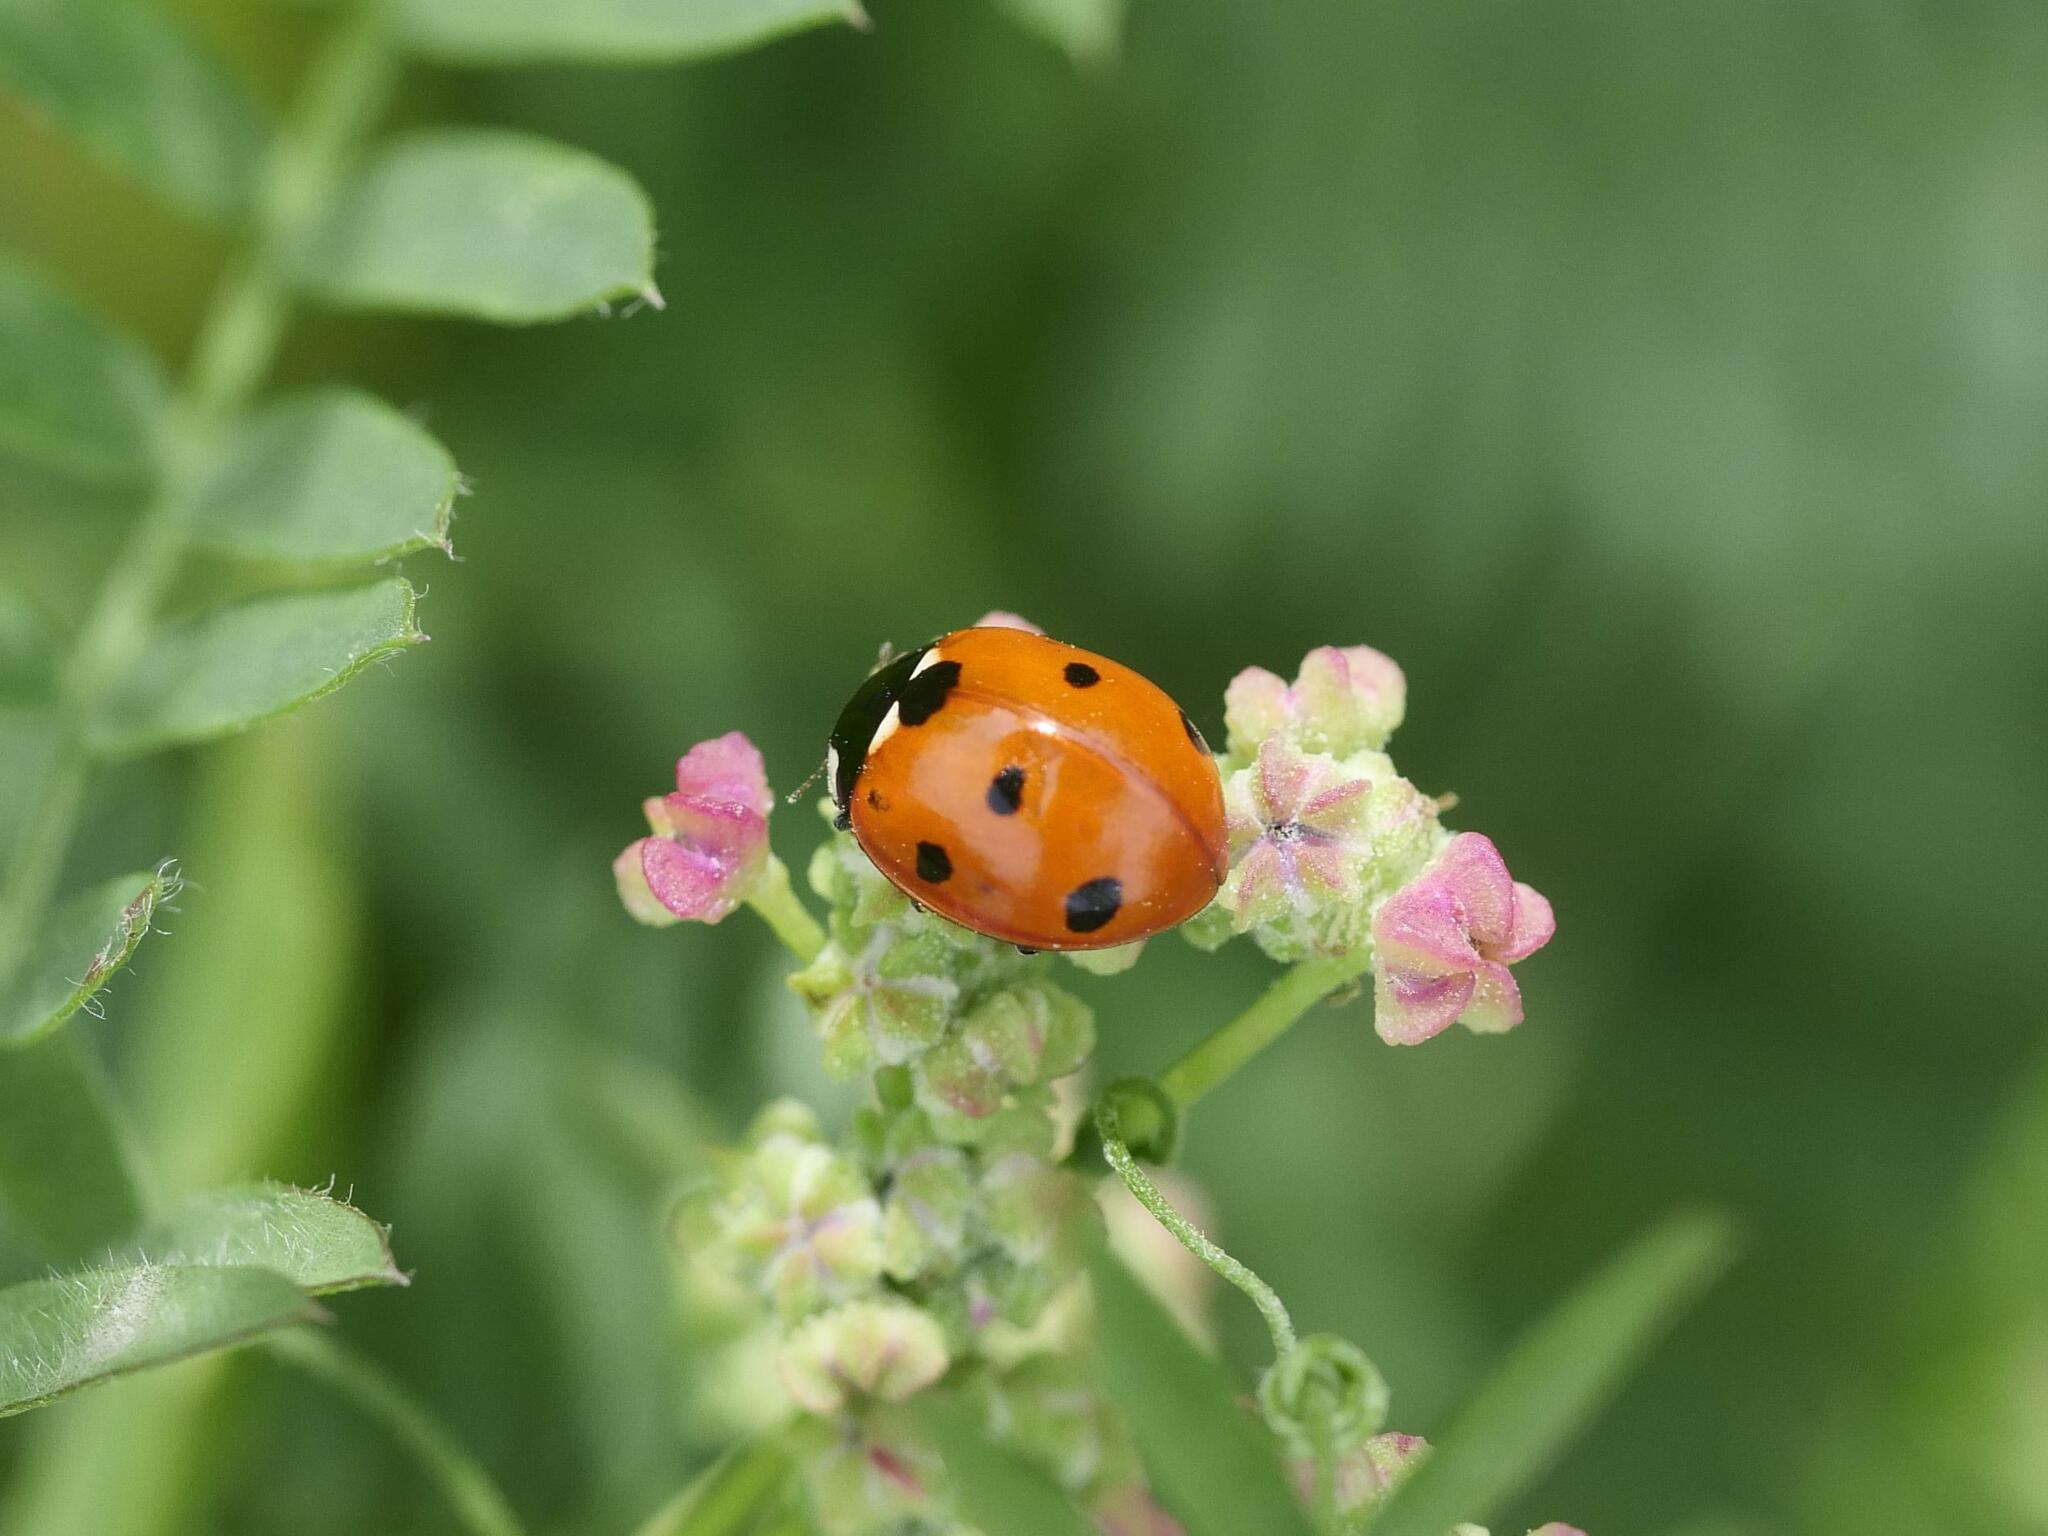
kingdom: Animalia
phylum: Arthropoda
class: Insecta
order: Coleoptera
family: Coccinellidae
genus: Coccinella
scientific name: Coccinella septempunctata
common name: Sevenspotted lady beetle
